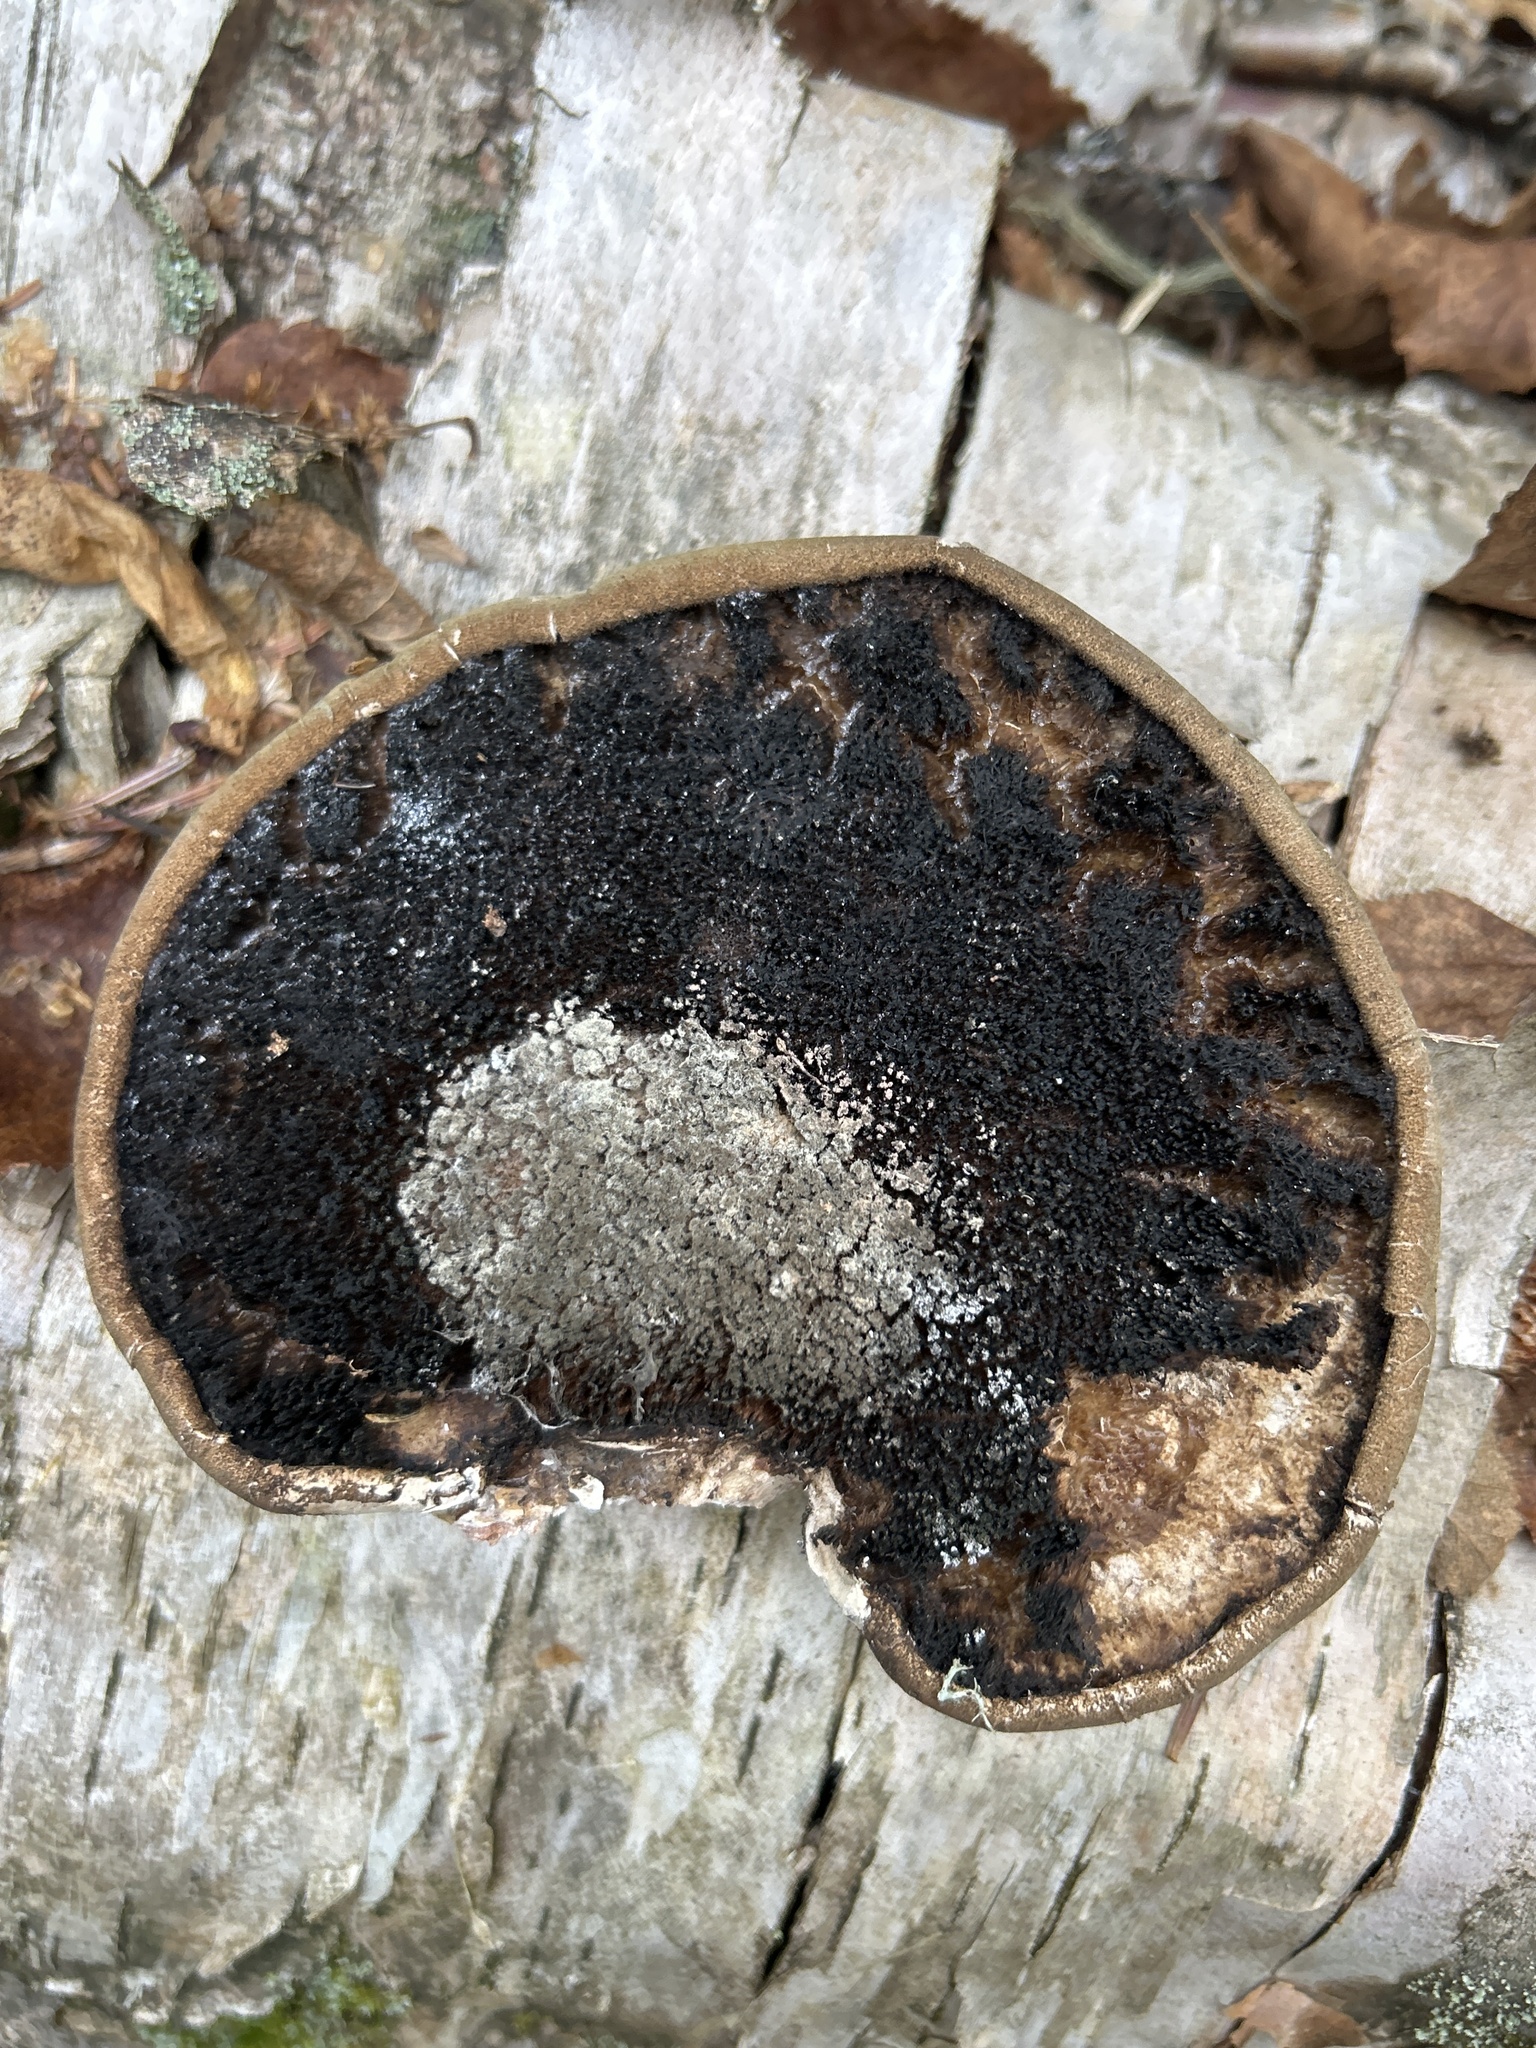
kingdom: Fungi
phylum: Basidiomycota
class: Agaricomycetes
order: Polyporales
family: Fomitopsidaceae
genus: Fomitopsis
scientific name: Fomitopsis betulina
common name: Birch polypore
